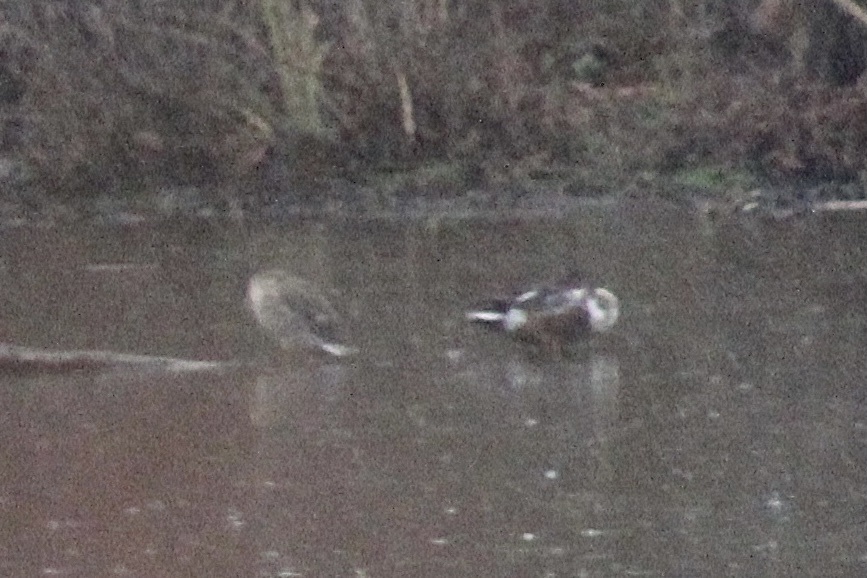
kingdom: Animalia
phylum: Chordata
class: Aves
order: Anseriformes
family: Anatidae
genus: Spatula
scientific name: Spatula clypeata
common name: Northern shoveler
